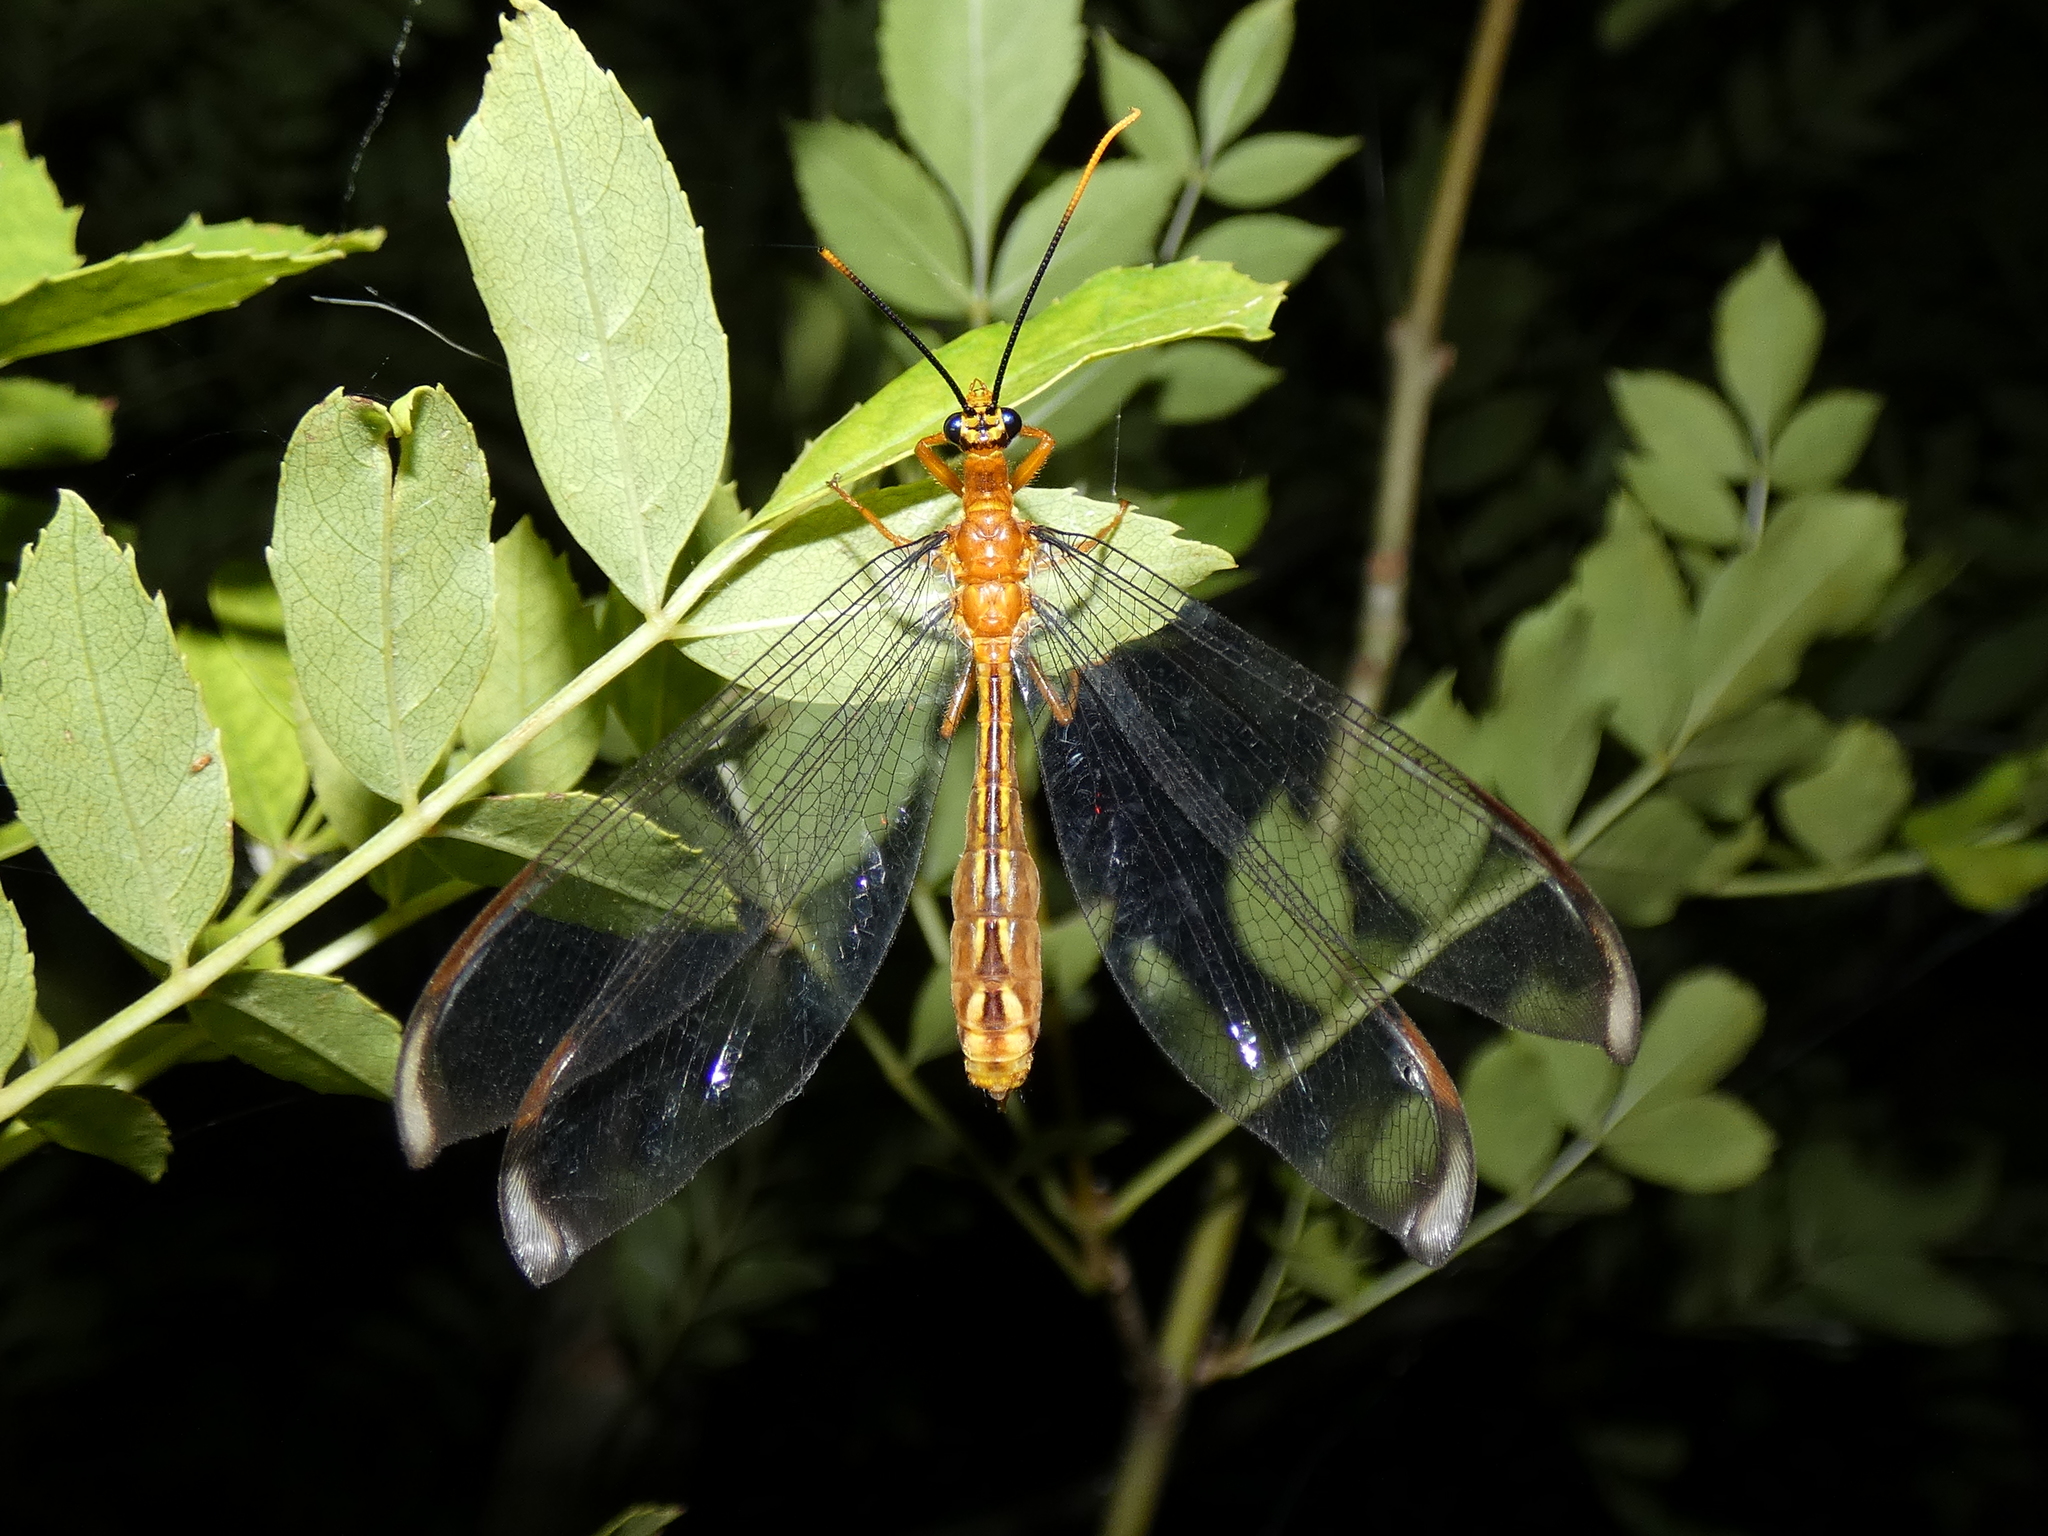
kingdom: Animalia
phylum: Arthropoda
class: Insecta
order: Neuroptera
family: Nymphidae
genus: Nymphes
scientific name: Nymphes myrmeleonoides
